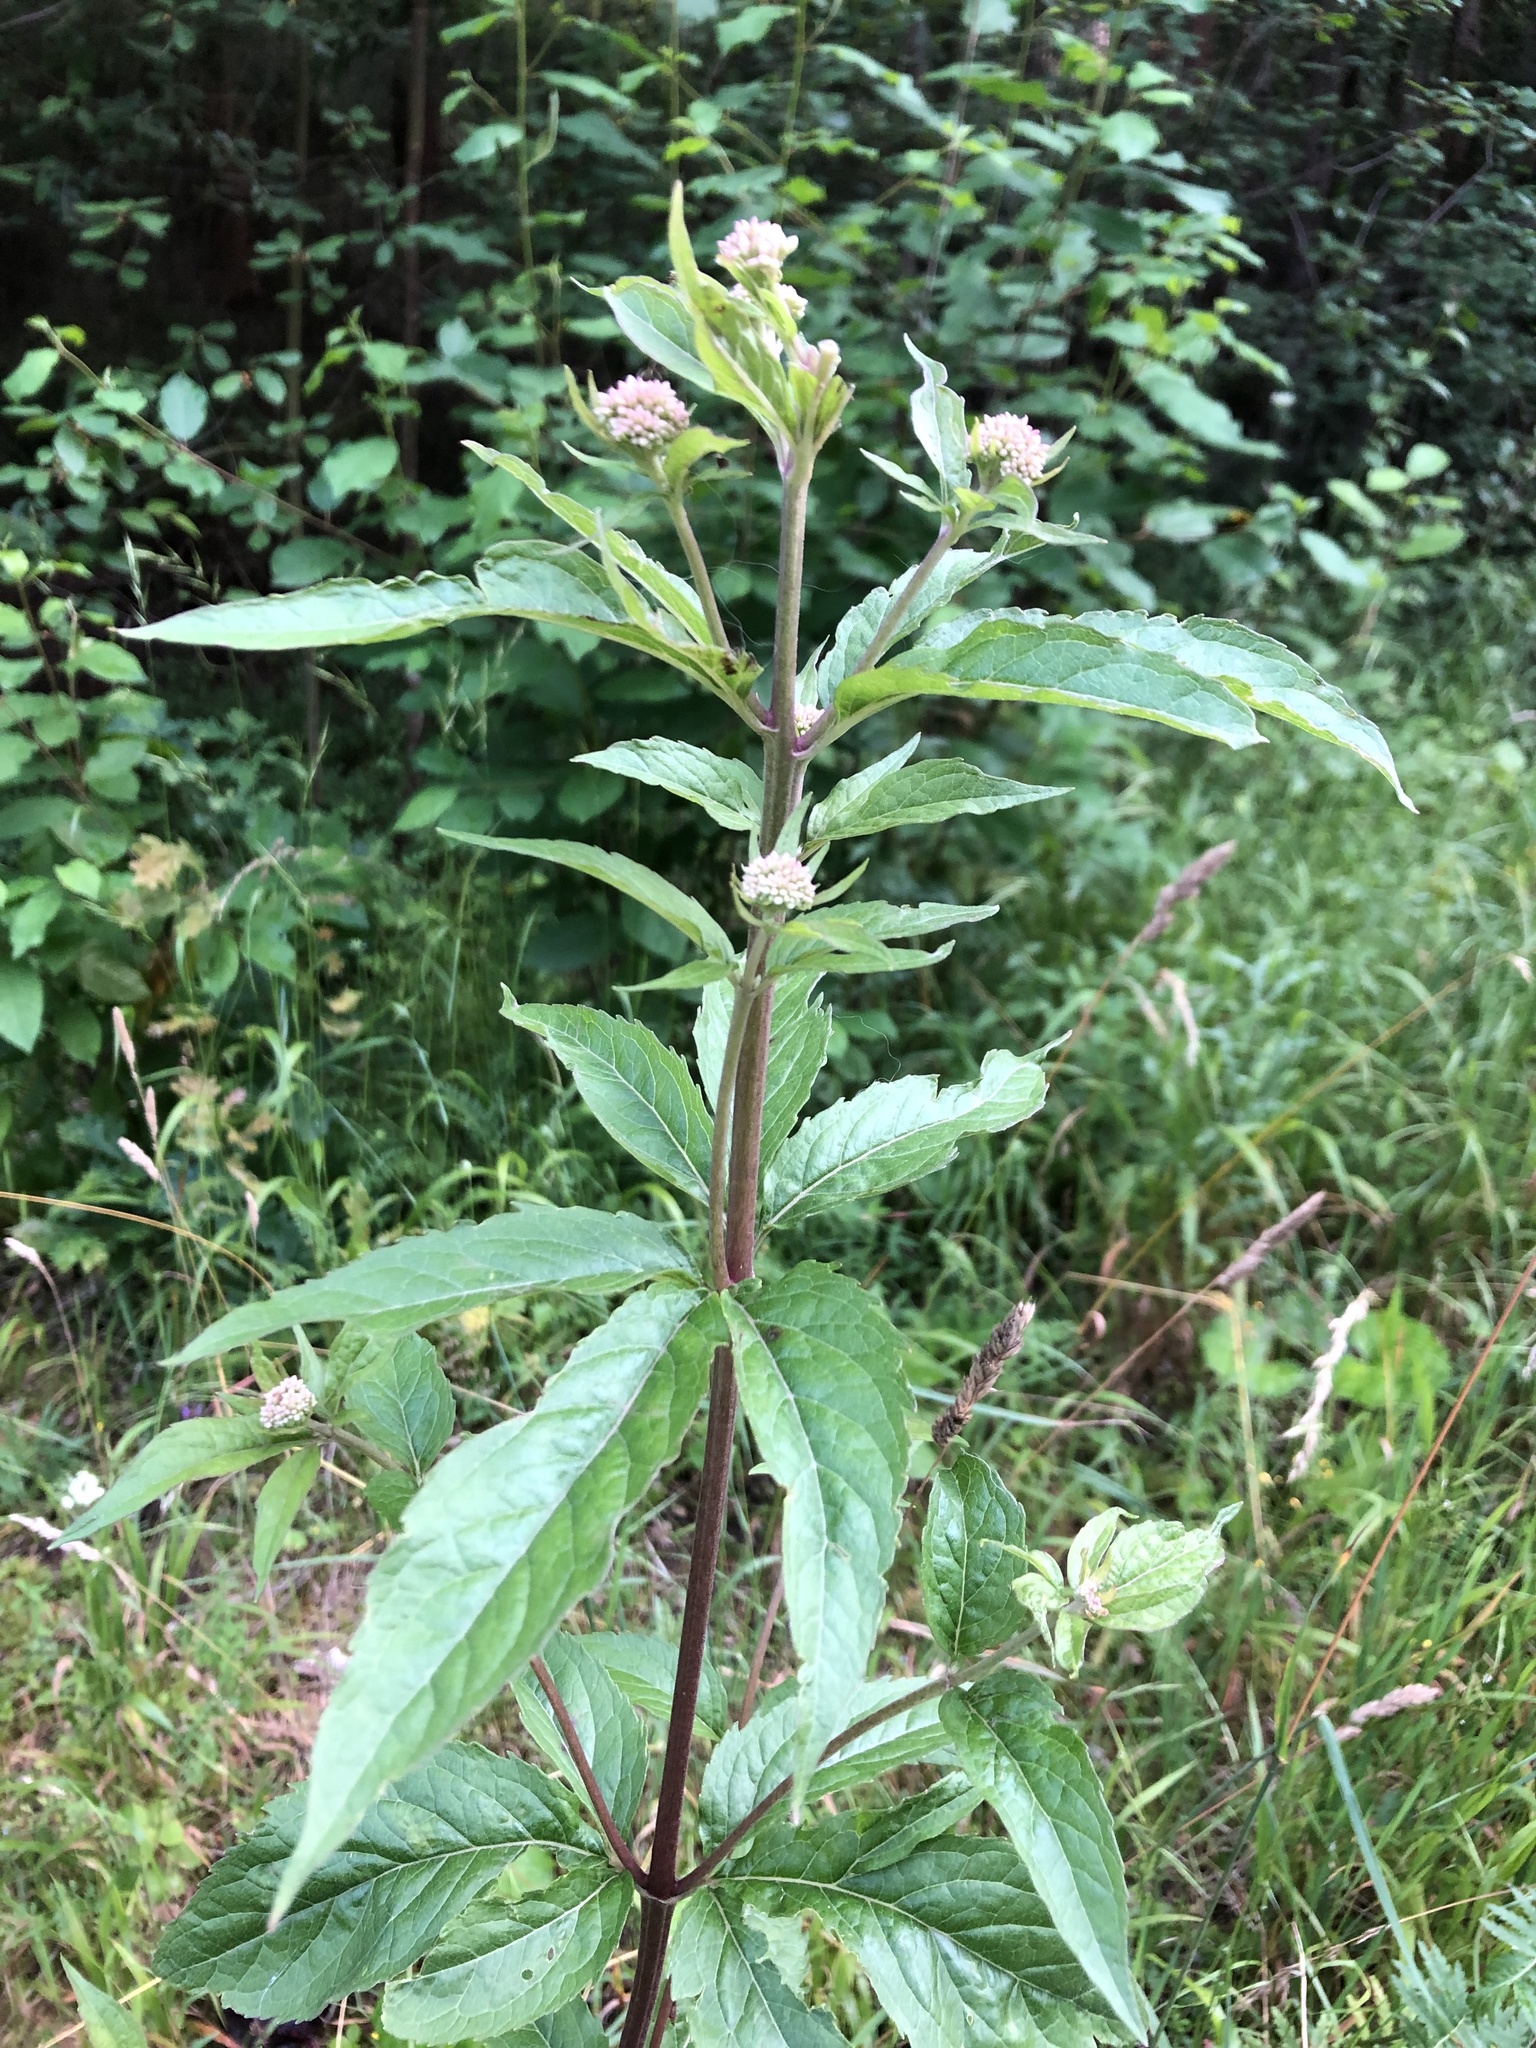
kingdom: Plantae
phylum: Tracheophyta
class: Magnoliopsida
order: Asterales
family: Asteraceae
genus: Eupatorium
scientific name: Eupatorium cannabinum
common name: Hemp-agrimony
